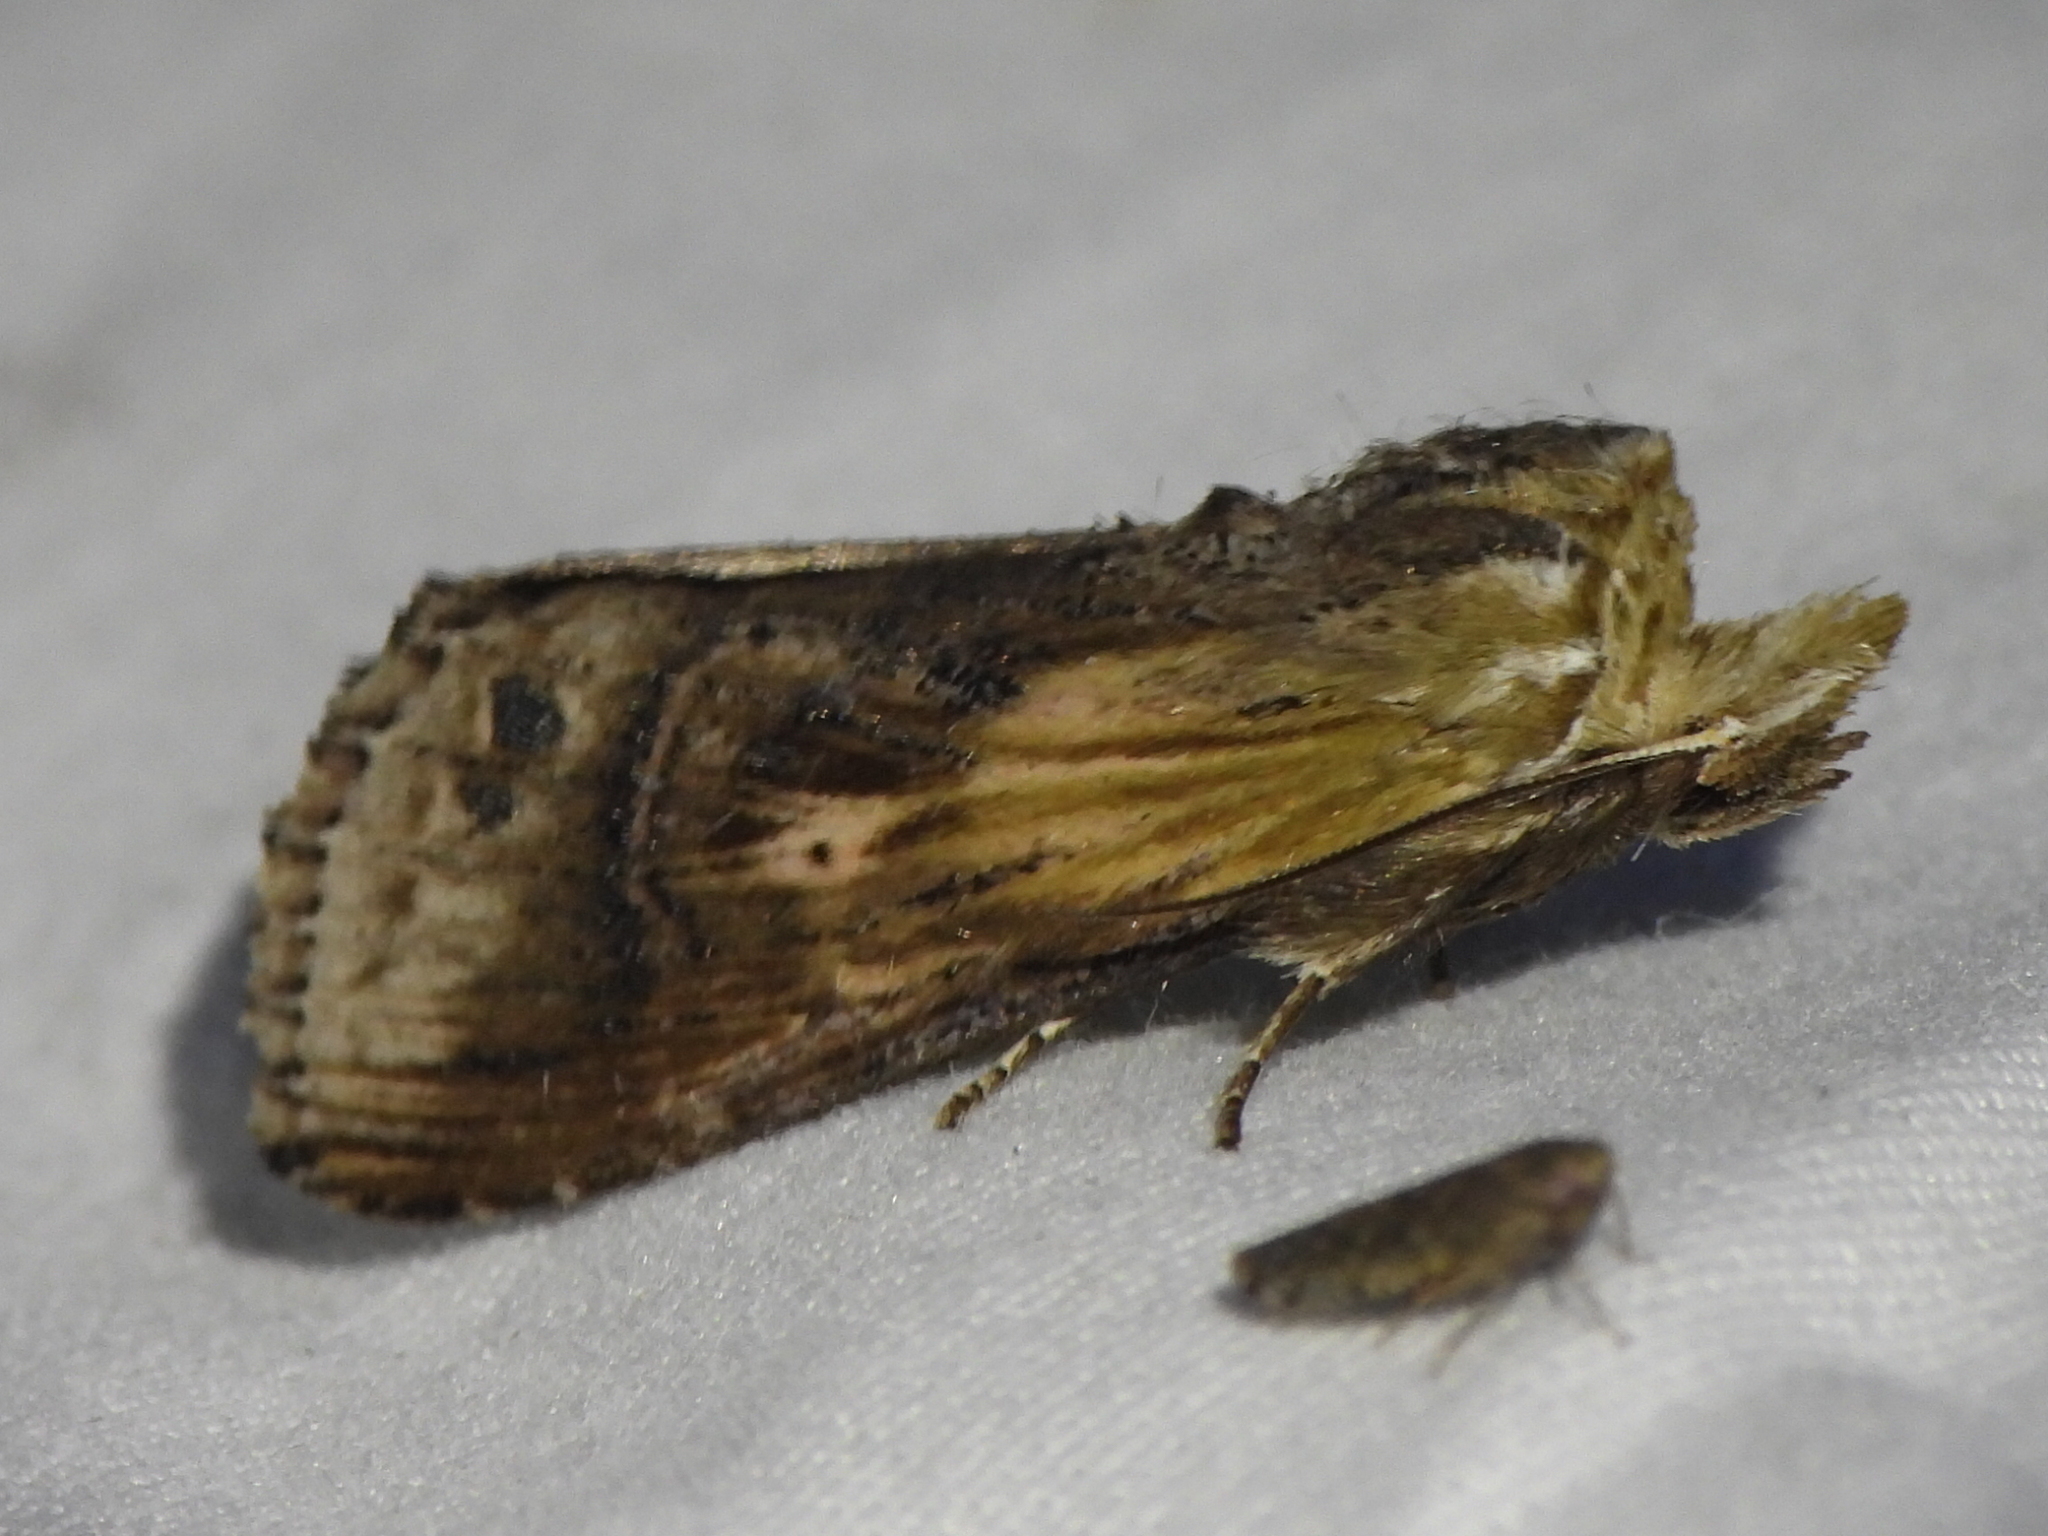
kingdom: Animalia
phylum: Arthropoda
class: Insecta
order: Lepidoptera
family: Notodontidae
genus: Dasylophia
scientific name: Dasylophia anguina
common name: Black-spotted prominent
